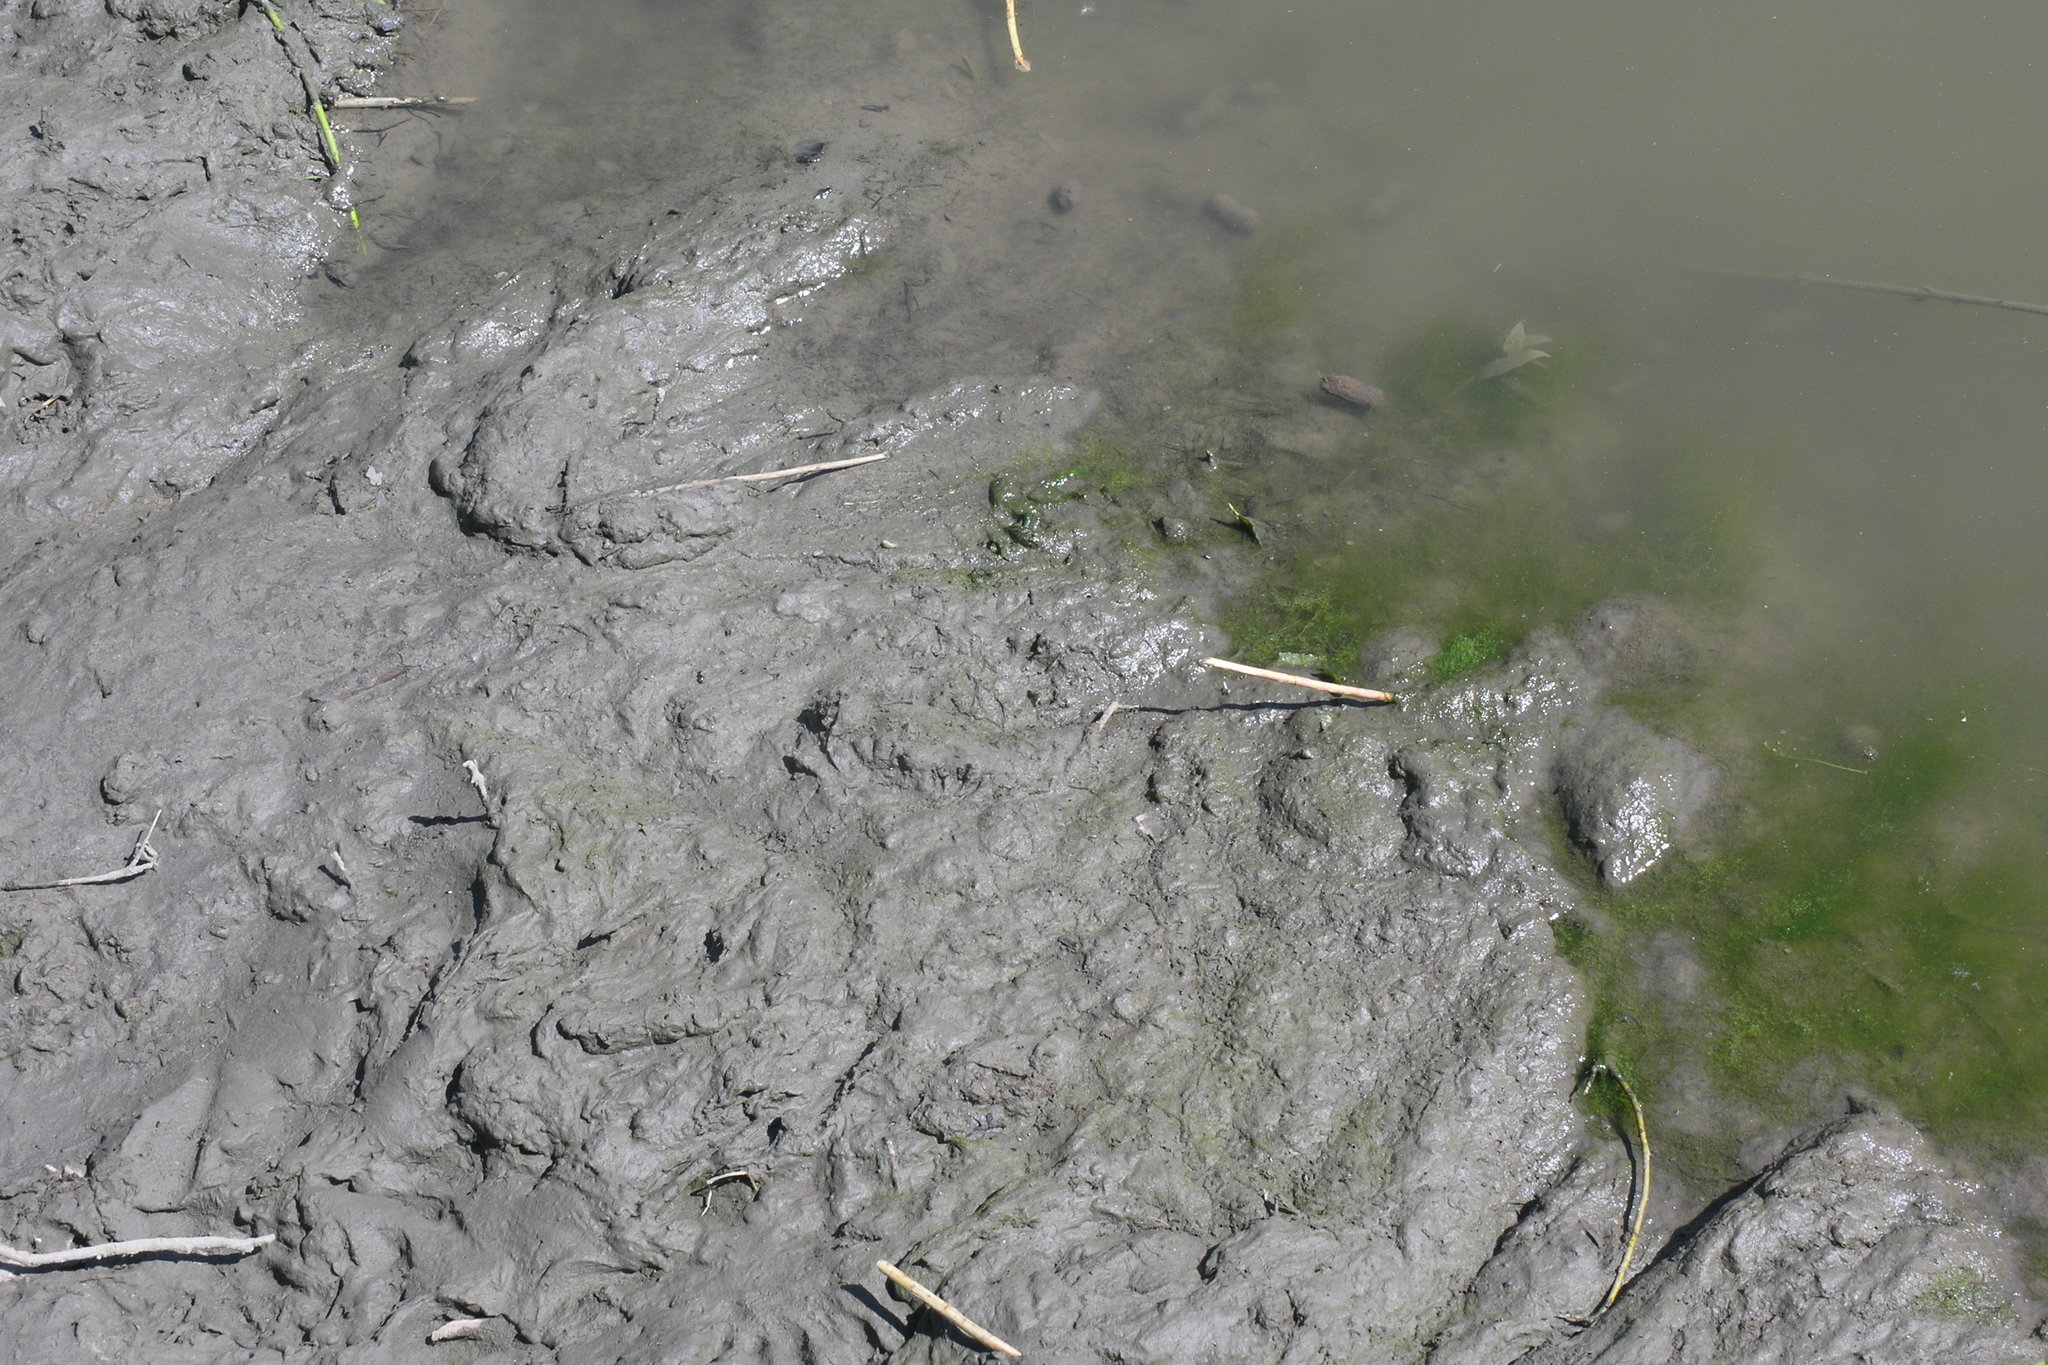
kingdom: Animalia
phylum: Chordata
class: Mammalia
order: Rodentia
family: Castoridae
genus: Castor
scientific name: Castor fiber
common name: Eurasian beaver
